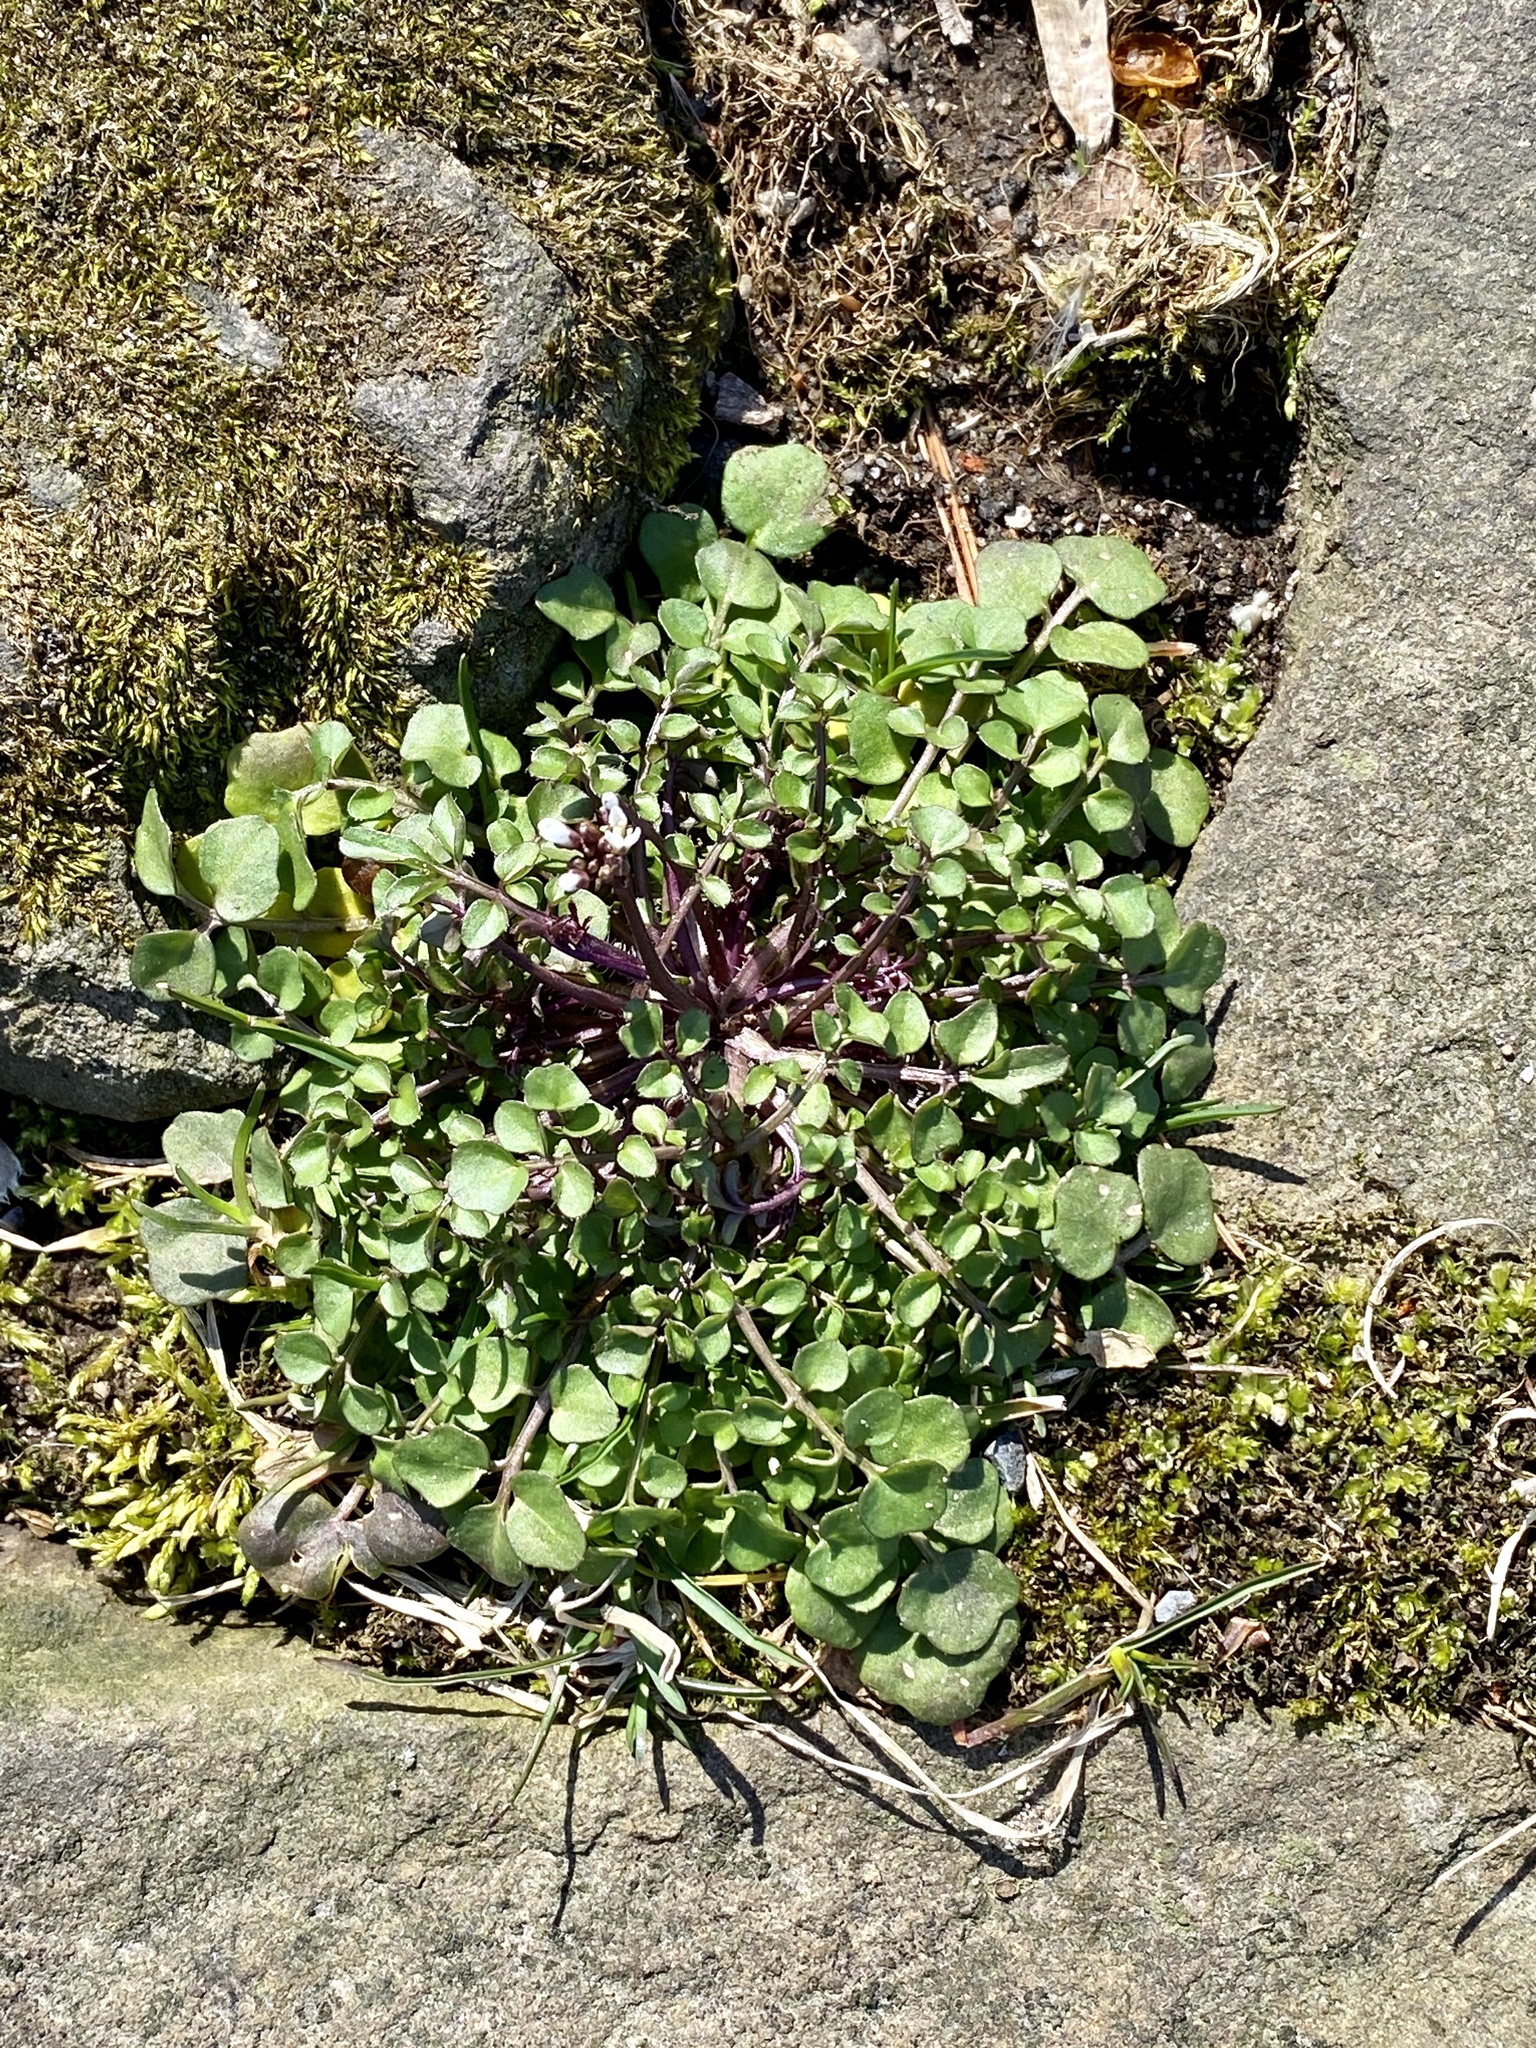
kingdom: Plantae
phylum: Tracheophyta
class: Magnoliopsida
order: Brassicales
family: Brassicaceae
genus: Cardamine
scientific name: Cardamine hirsuta
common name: Hairy bittercress
